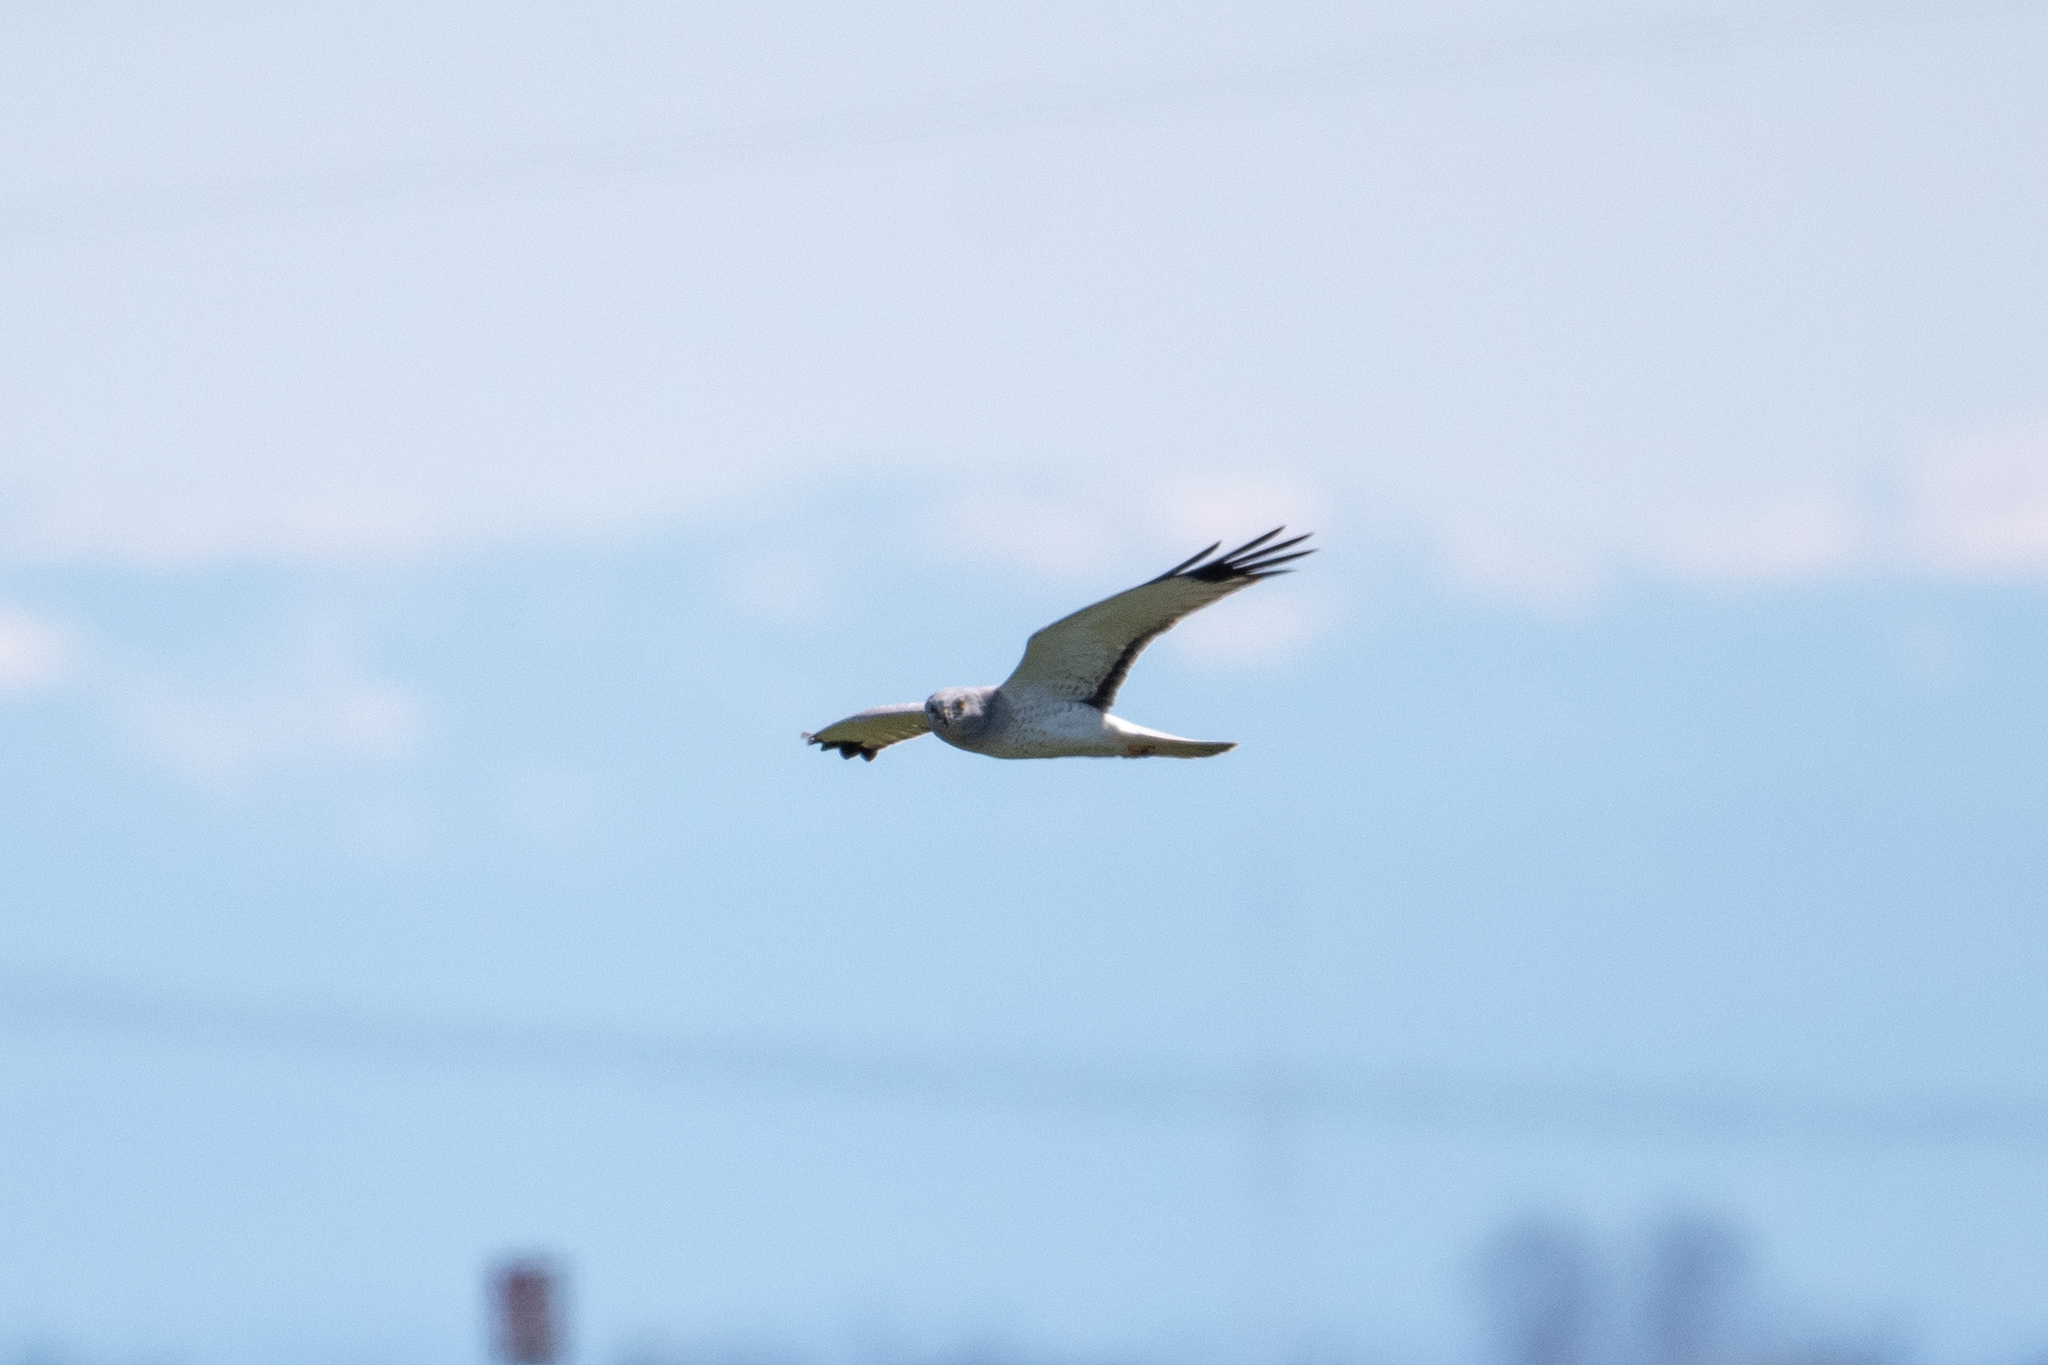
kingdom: Animalia
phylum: Chordata
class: Aves
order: Accipitriformes
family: Accipitridae
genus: Circus
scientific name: Circus cyaneus
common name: Hen harrier
